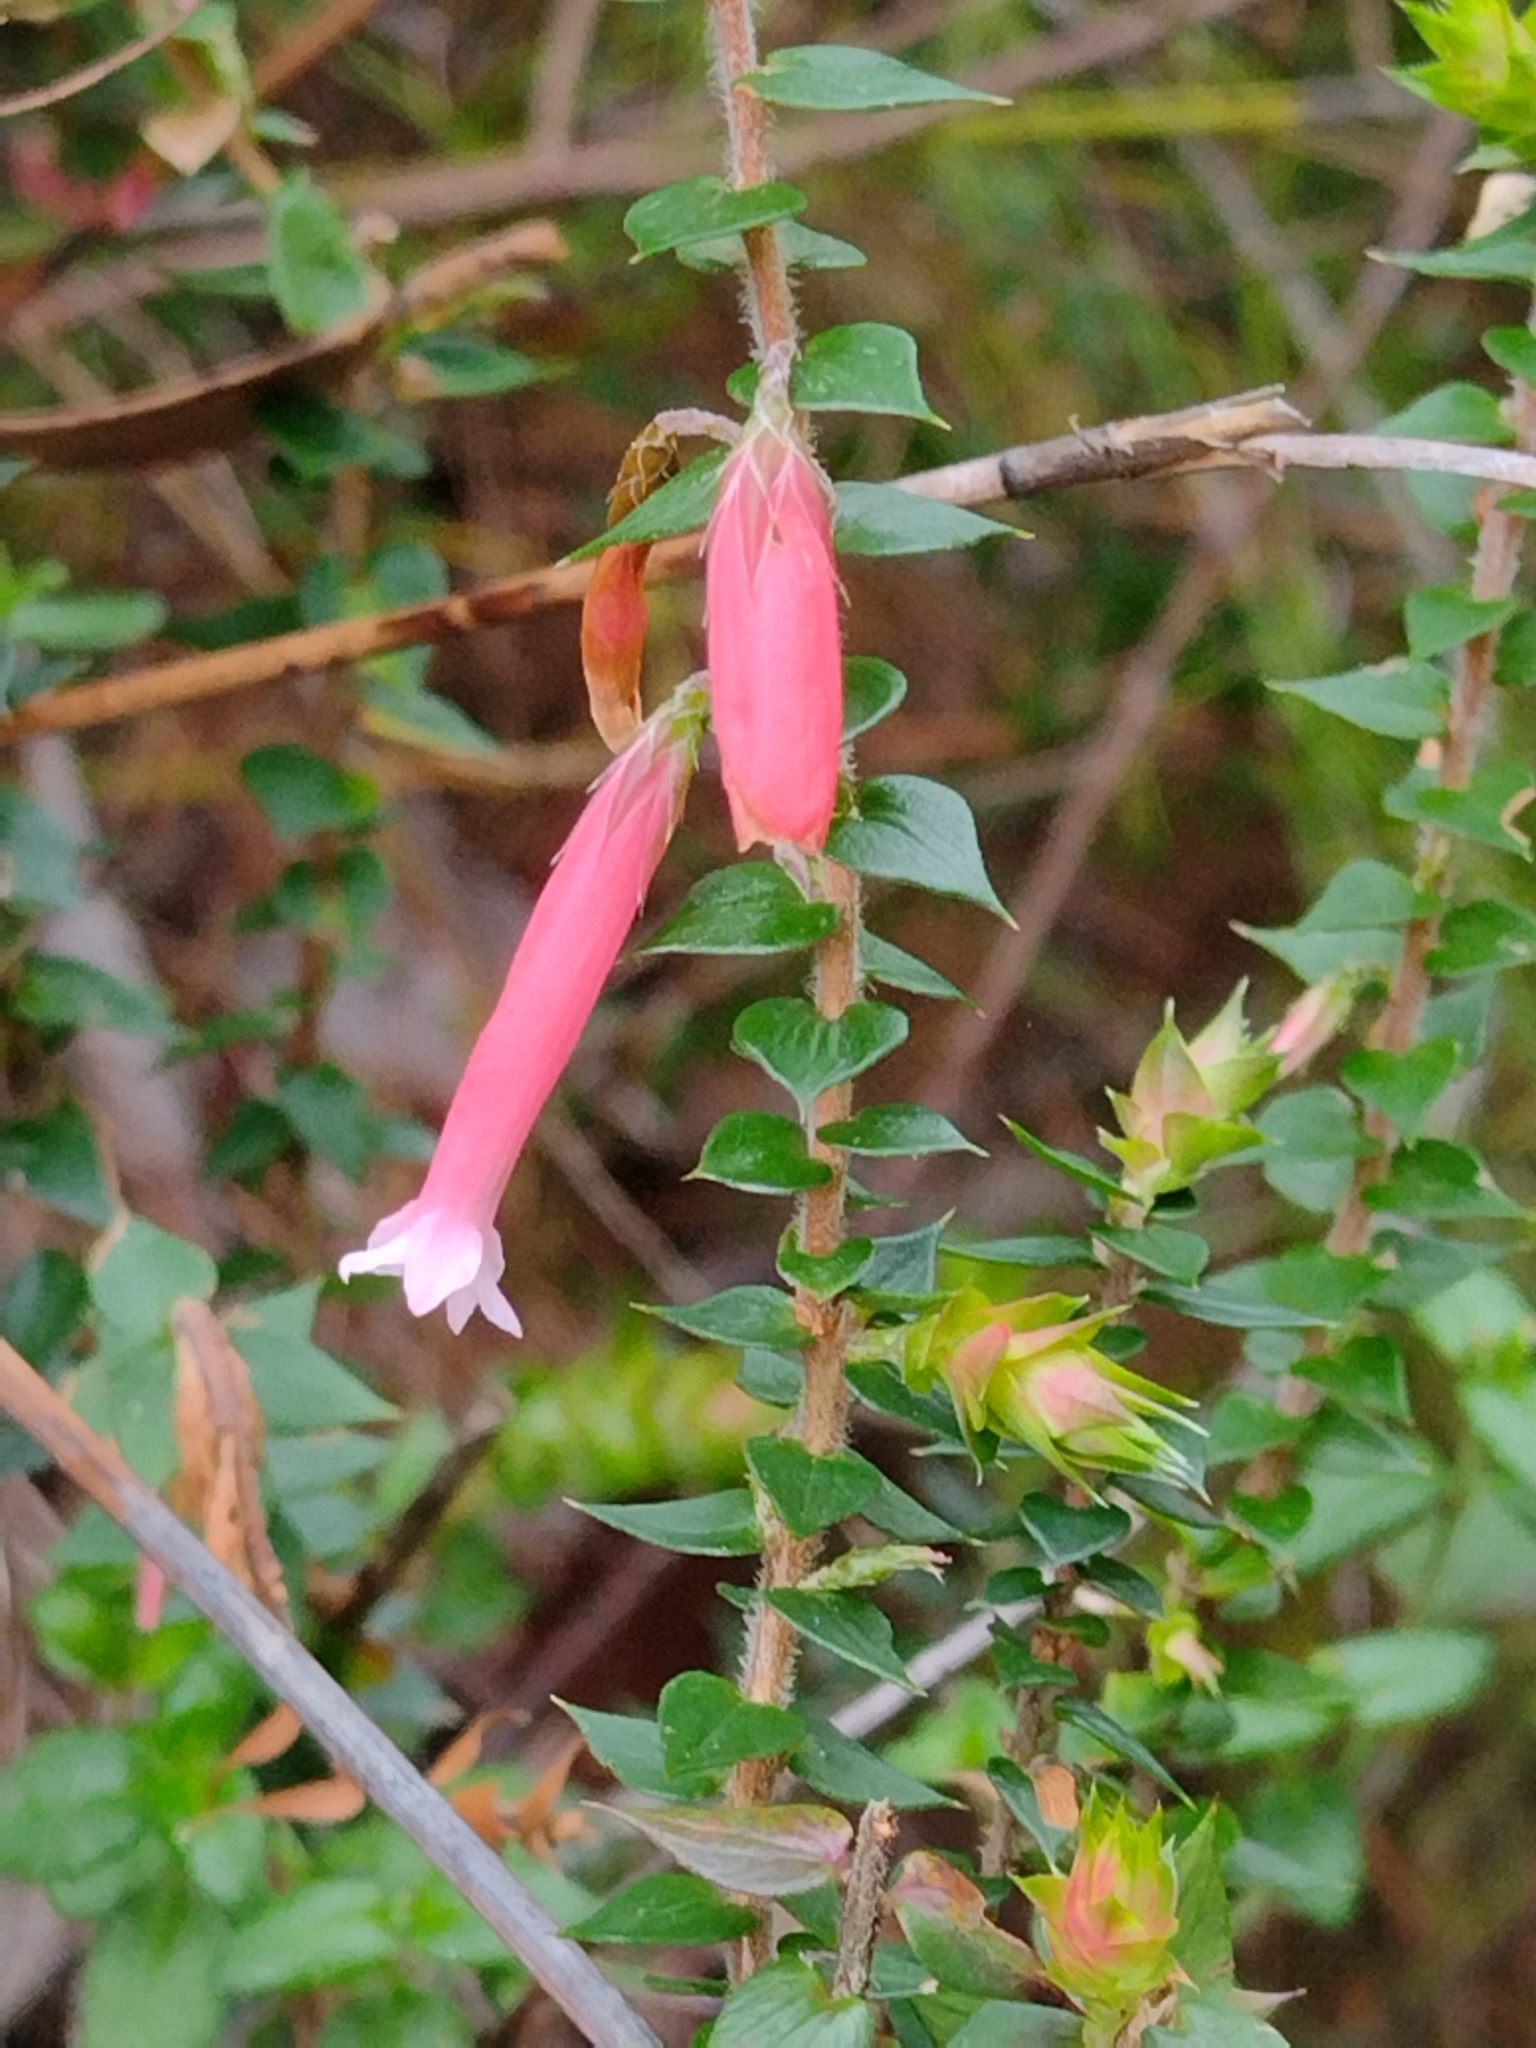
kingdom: Plantae
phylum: Tracheophyta
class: Magnoliopsida
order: Ericales
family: Ericaceae
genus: Epacris
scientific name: Epacris longiflora
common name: Fuchsia-heath
